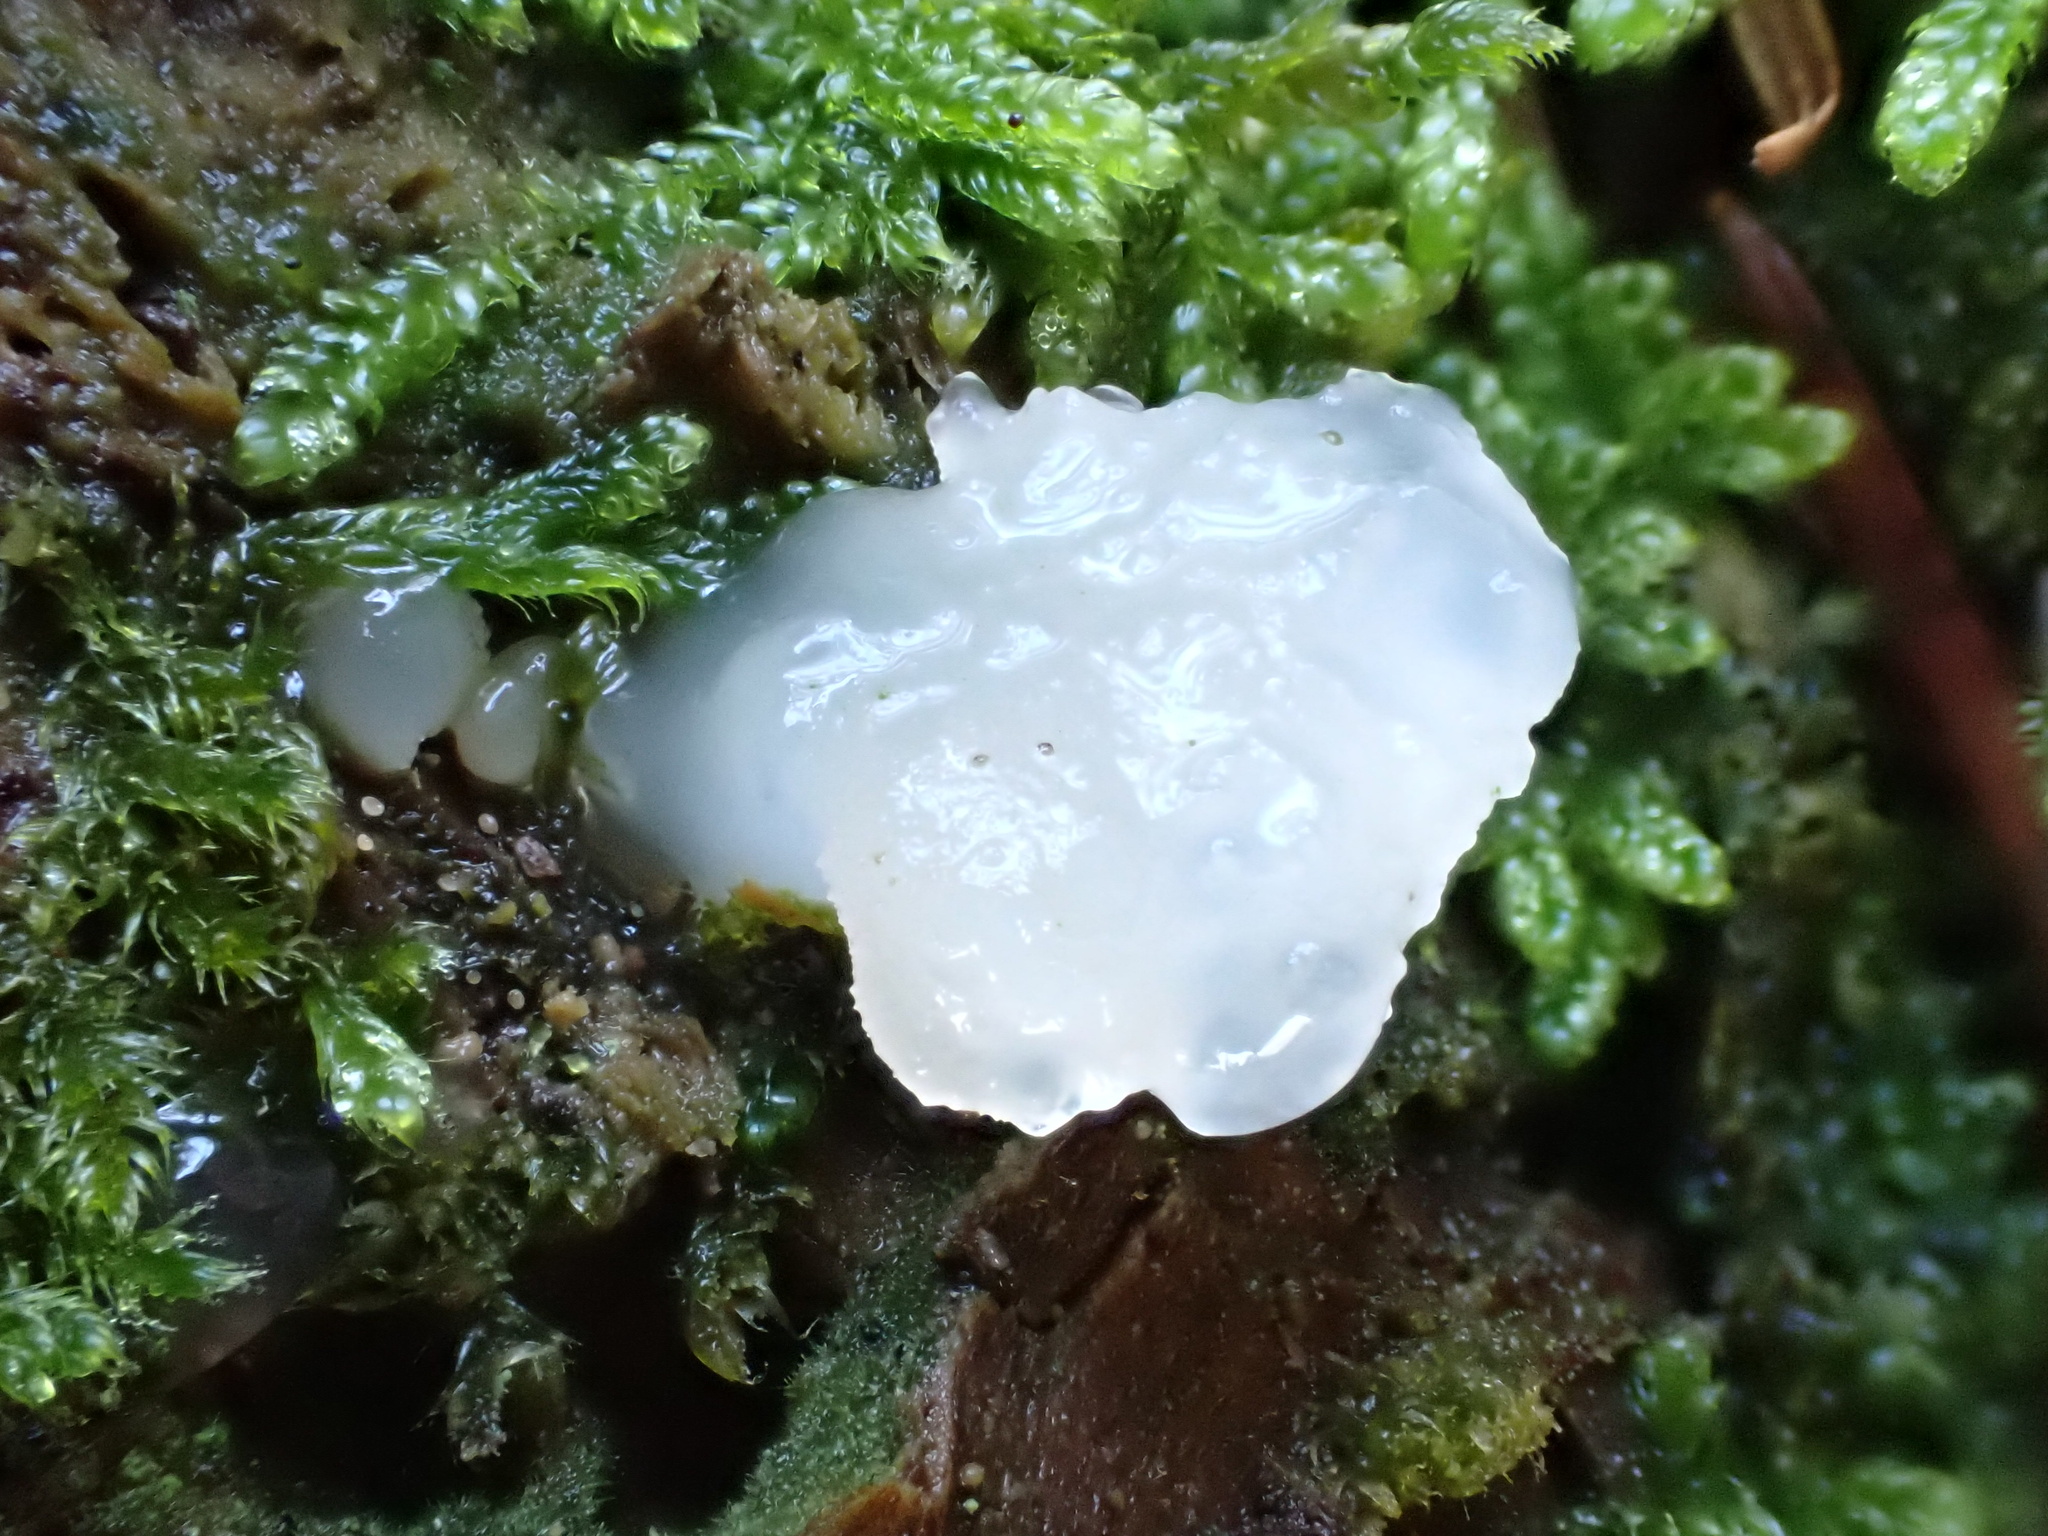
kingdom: Fungi
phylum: Basidiomycota
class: Agaricomycetes
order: Auriculariales
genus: Pseudohydnum
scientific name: Pseudohydnum gelatinosum
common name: Jelly tongue
